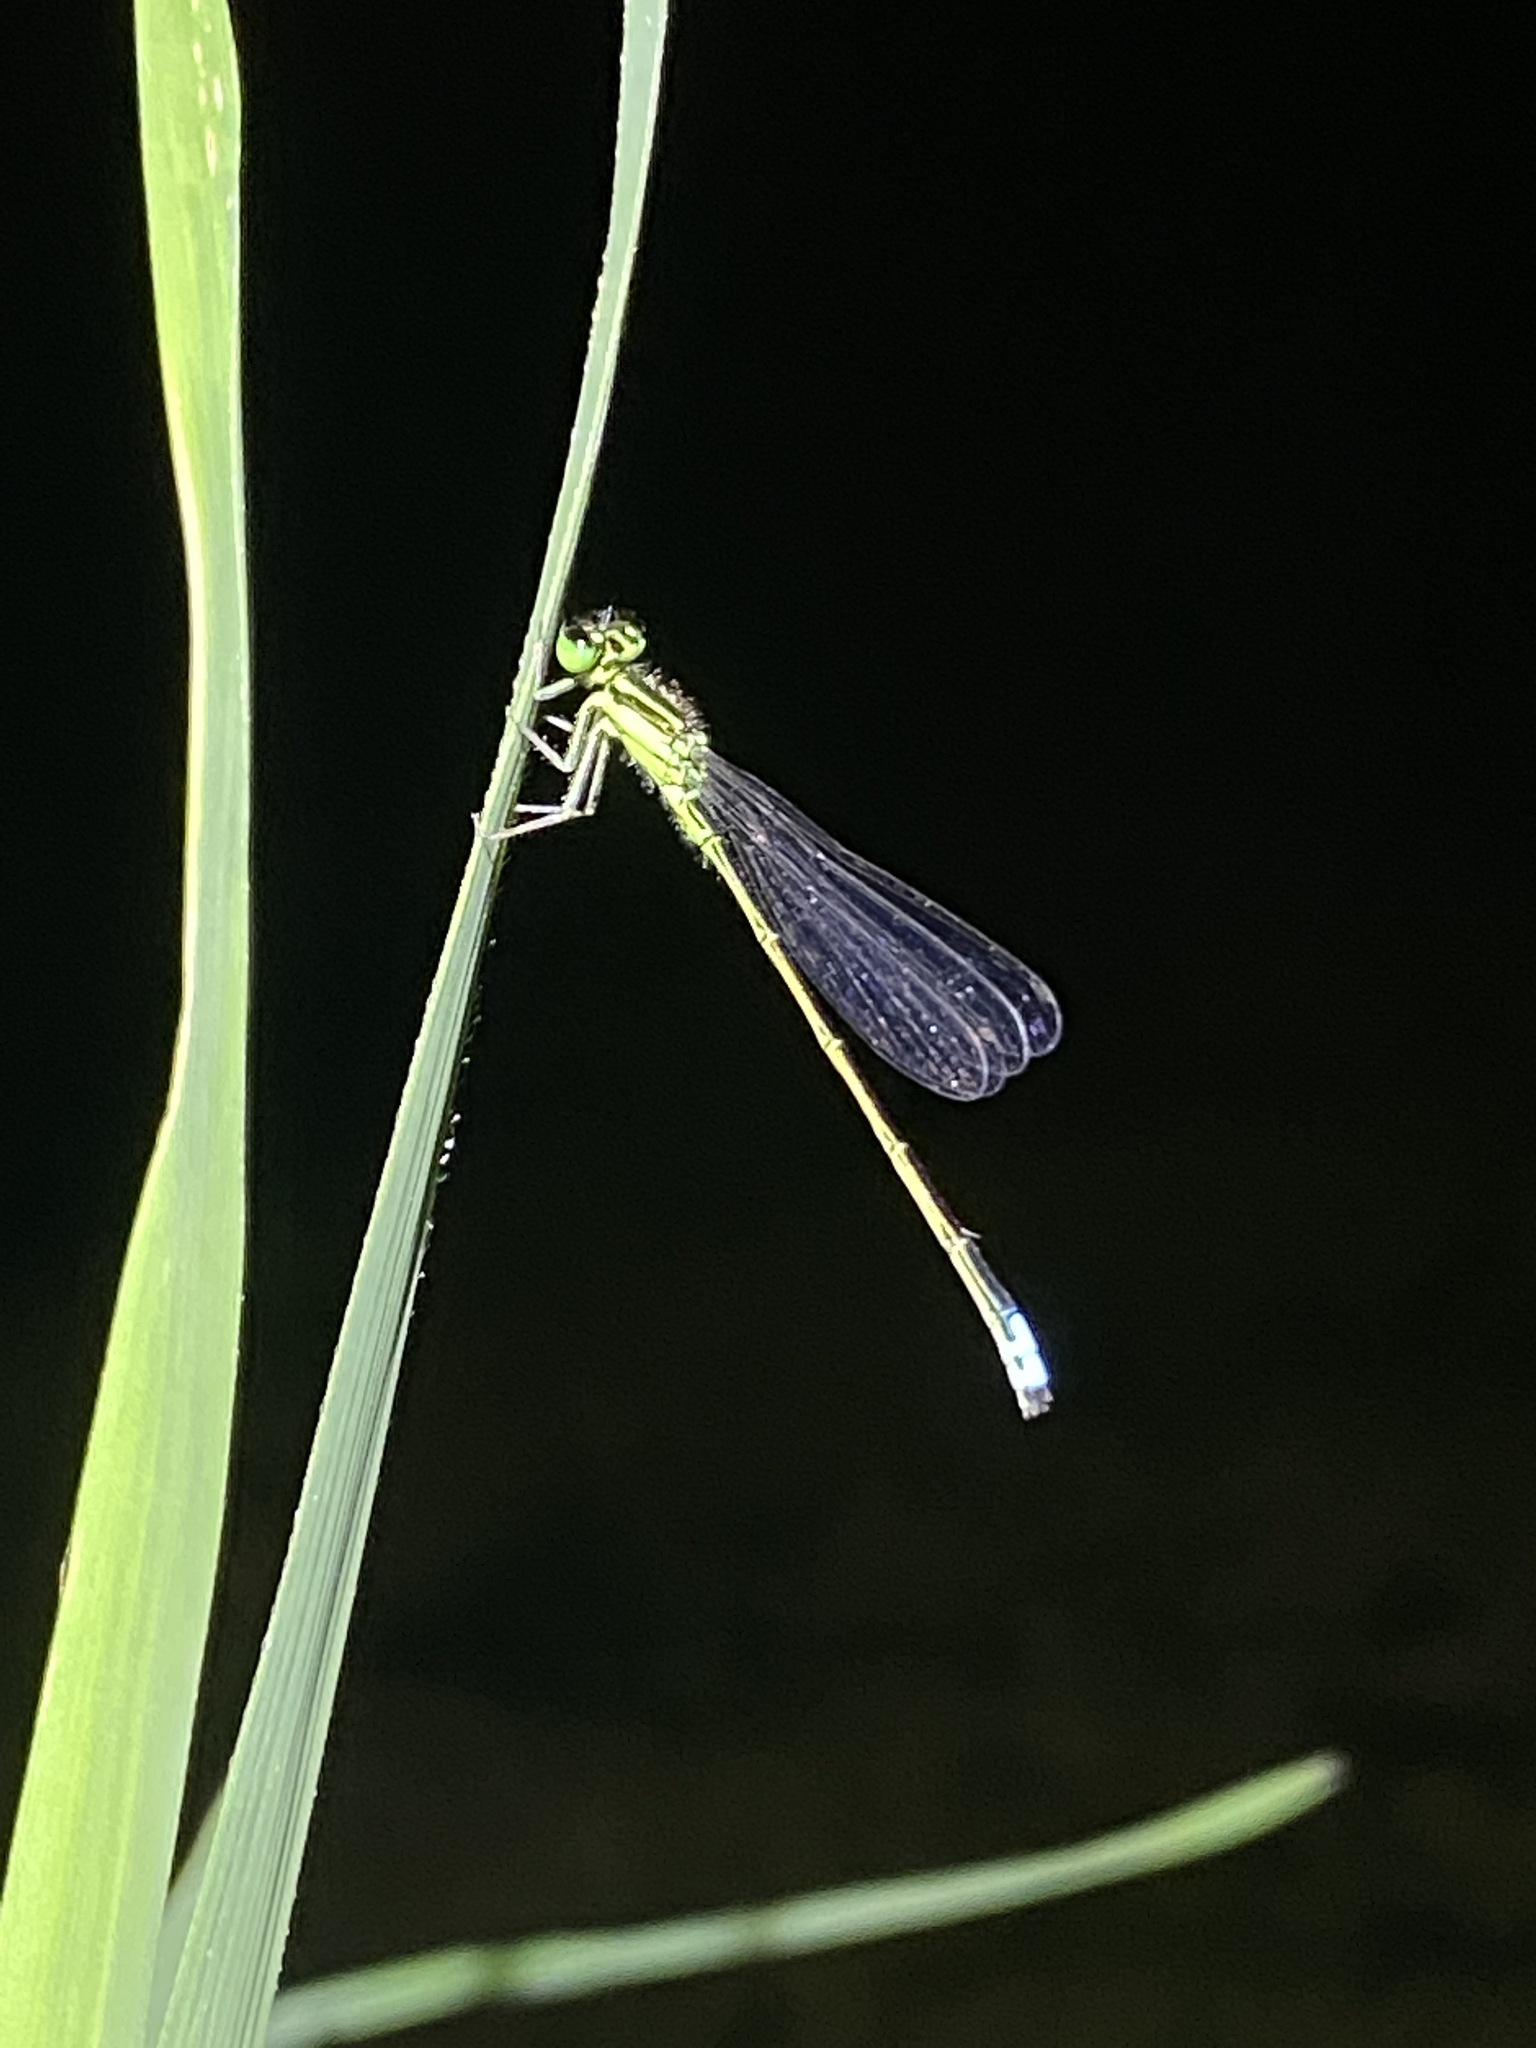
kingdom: Animalia
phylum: Arthropoda
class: Insecta
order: Odonata
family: Coenagrionidae
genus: Ischnura
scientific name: Ischnura verticalis
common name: Eastern forktail
